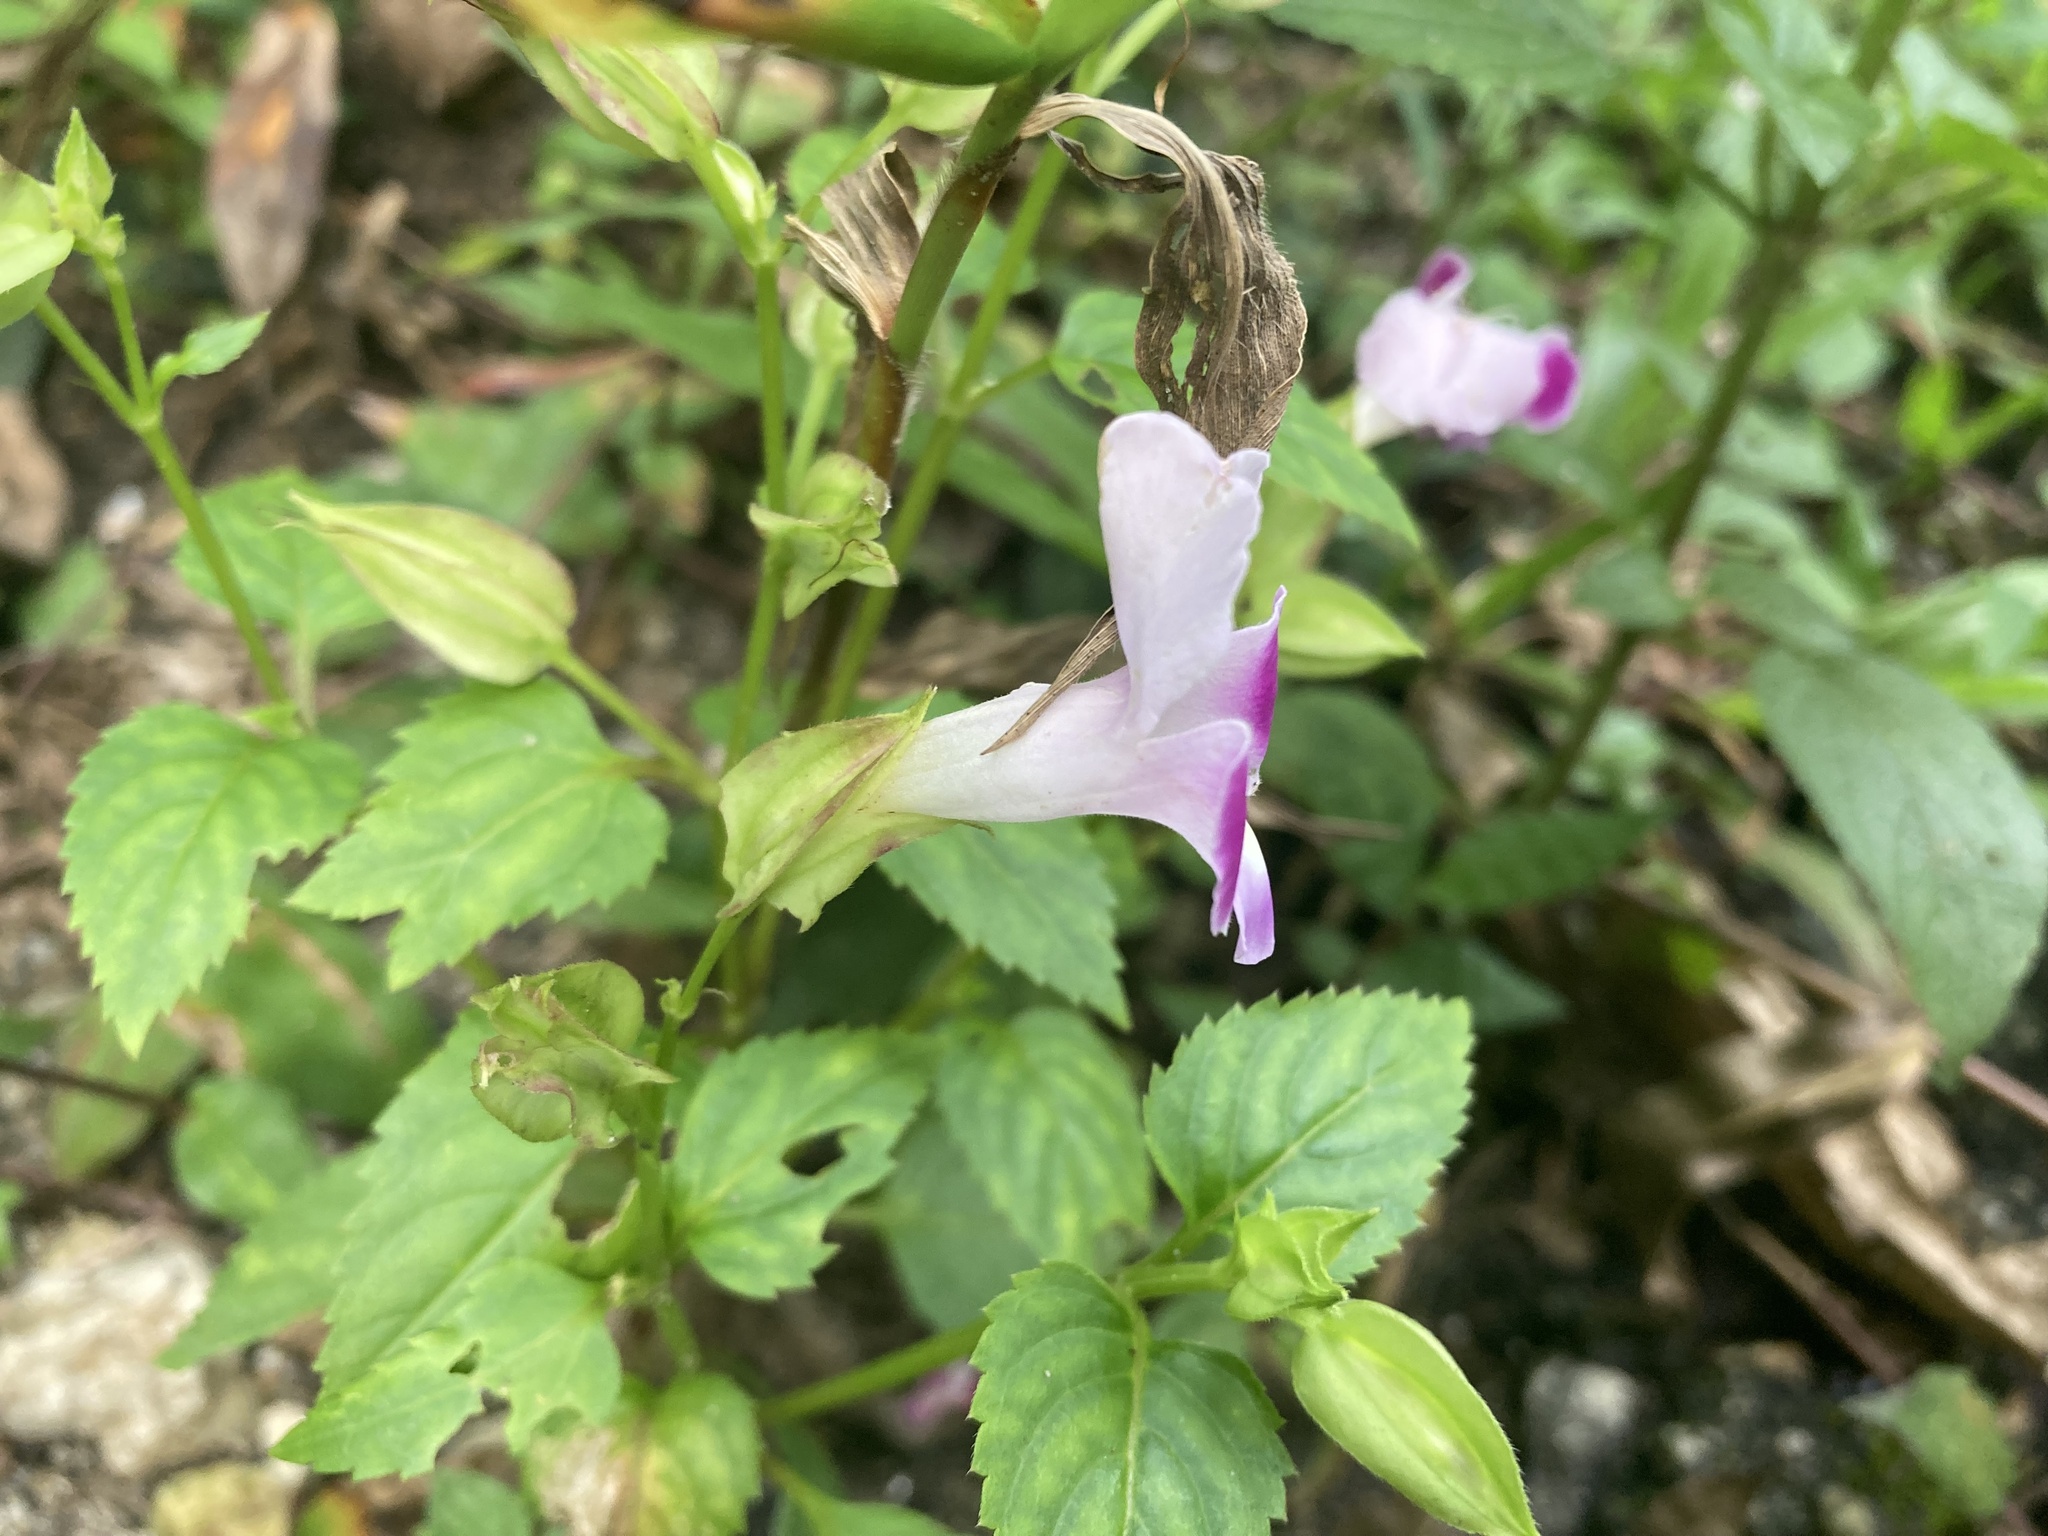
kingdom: Plantae
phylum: Tracheophyta
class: Magnoliopsida
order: Lamiales
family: Linderniaceae
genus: Torenia
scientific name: Torenia fournieri
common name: Bluewings
